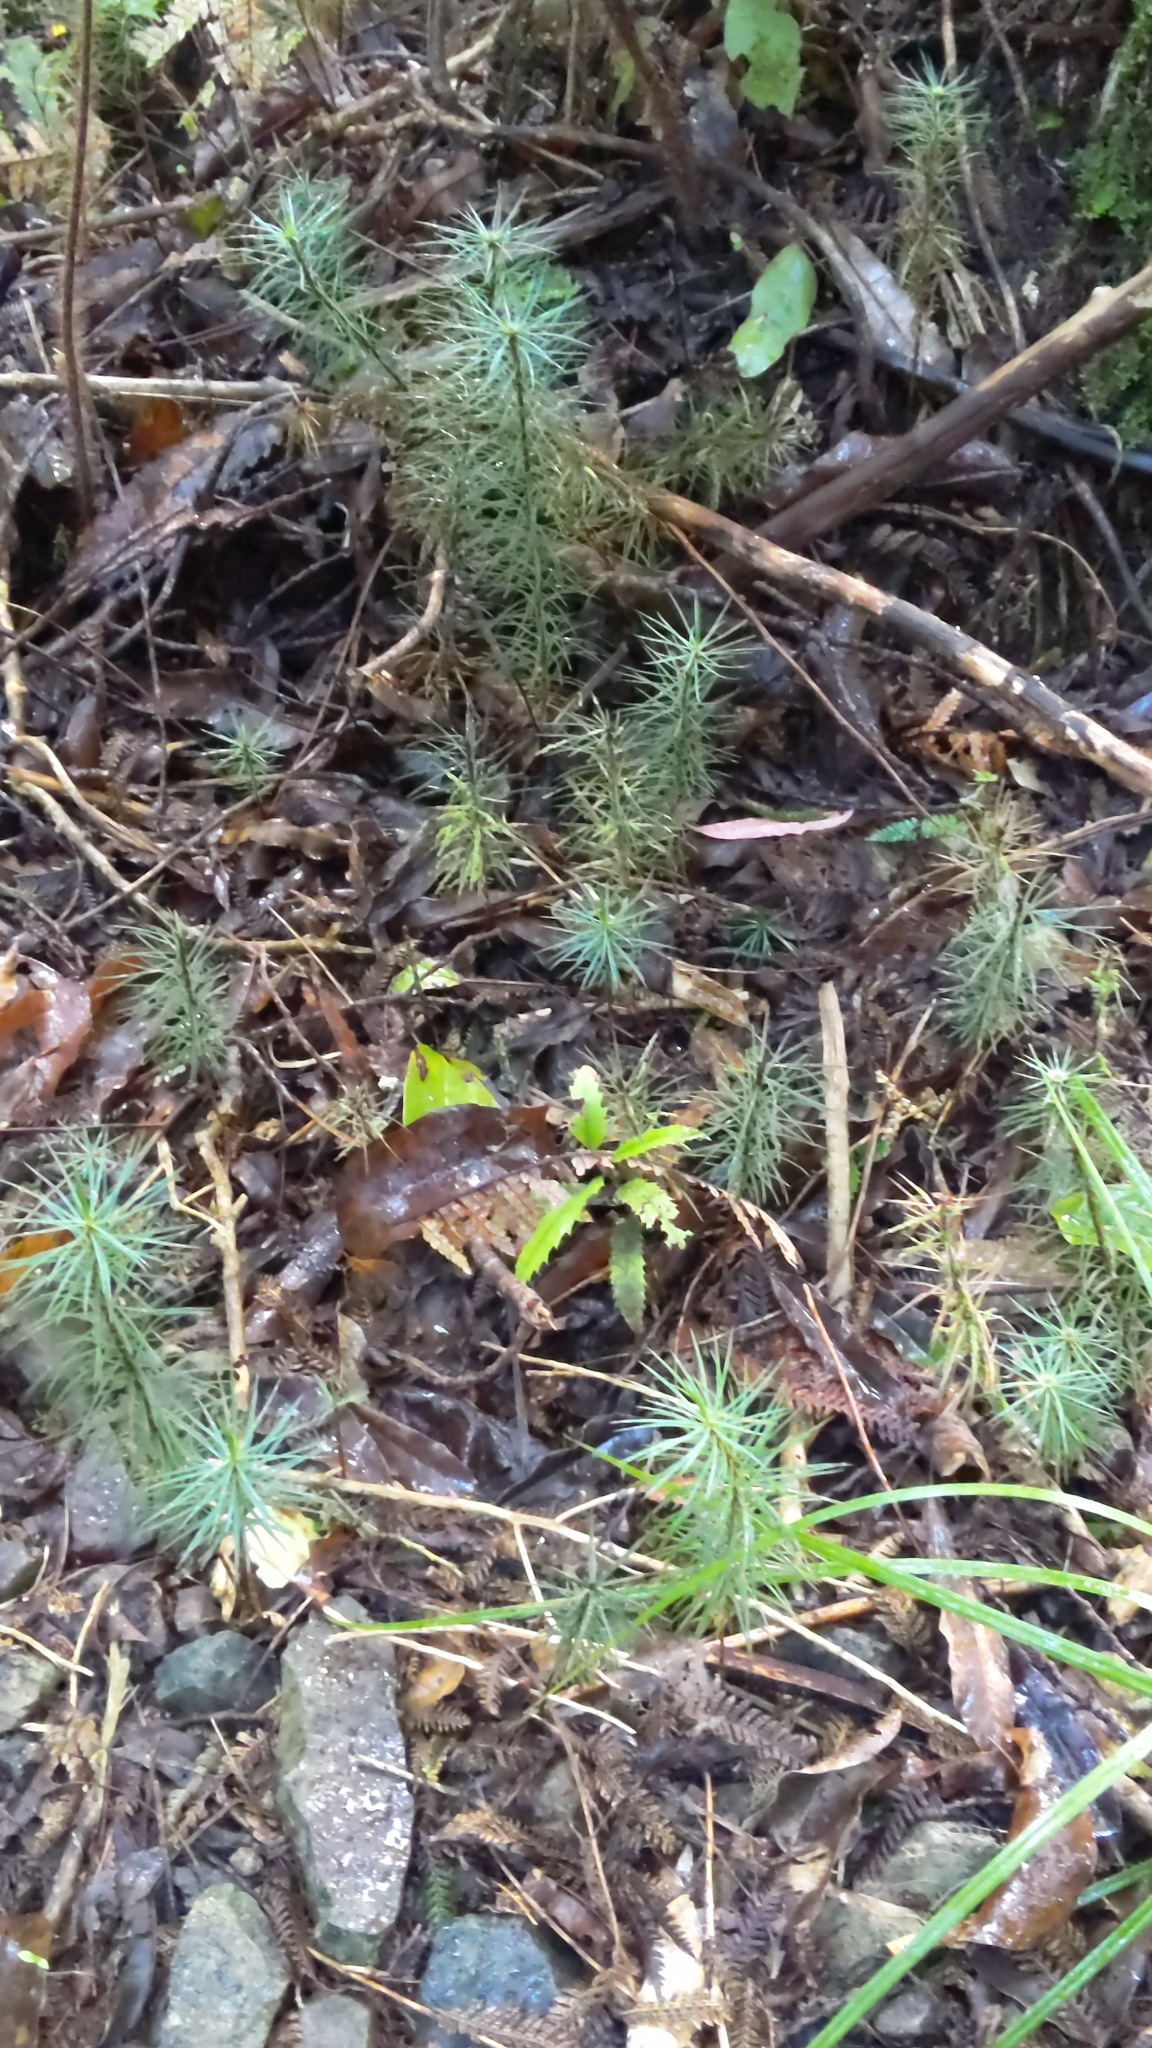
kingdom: Plantae
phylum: Bryophyta
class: Polytrichopsida
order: Polytrichales
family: Polytrichaceae
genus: Dawsonia
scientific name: Dawsonia superba
